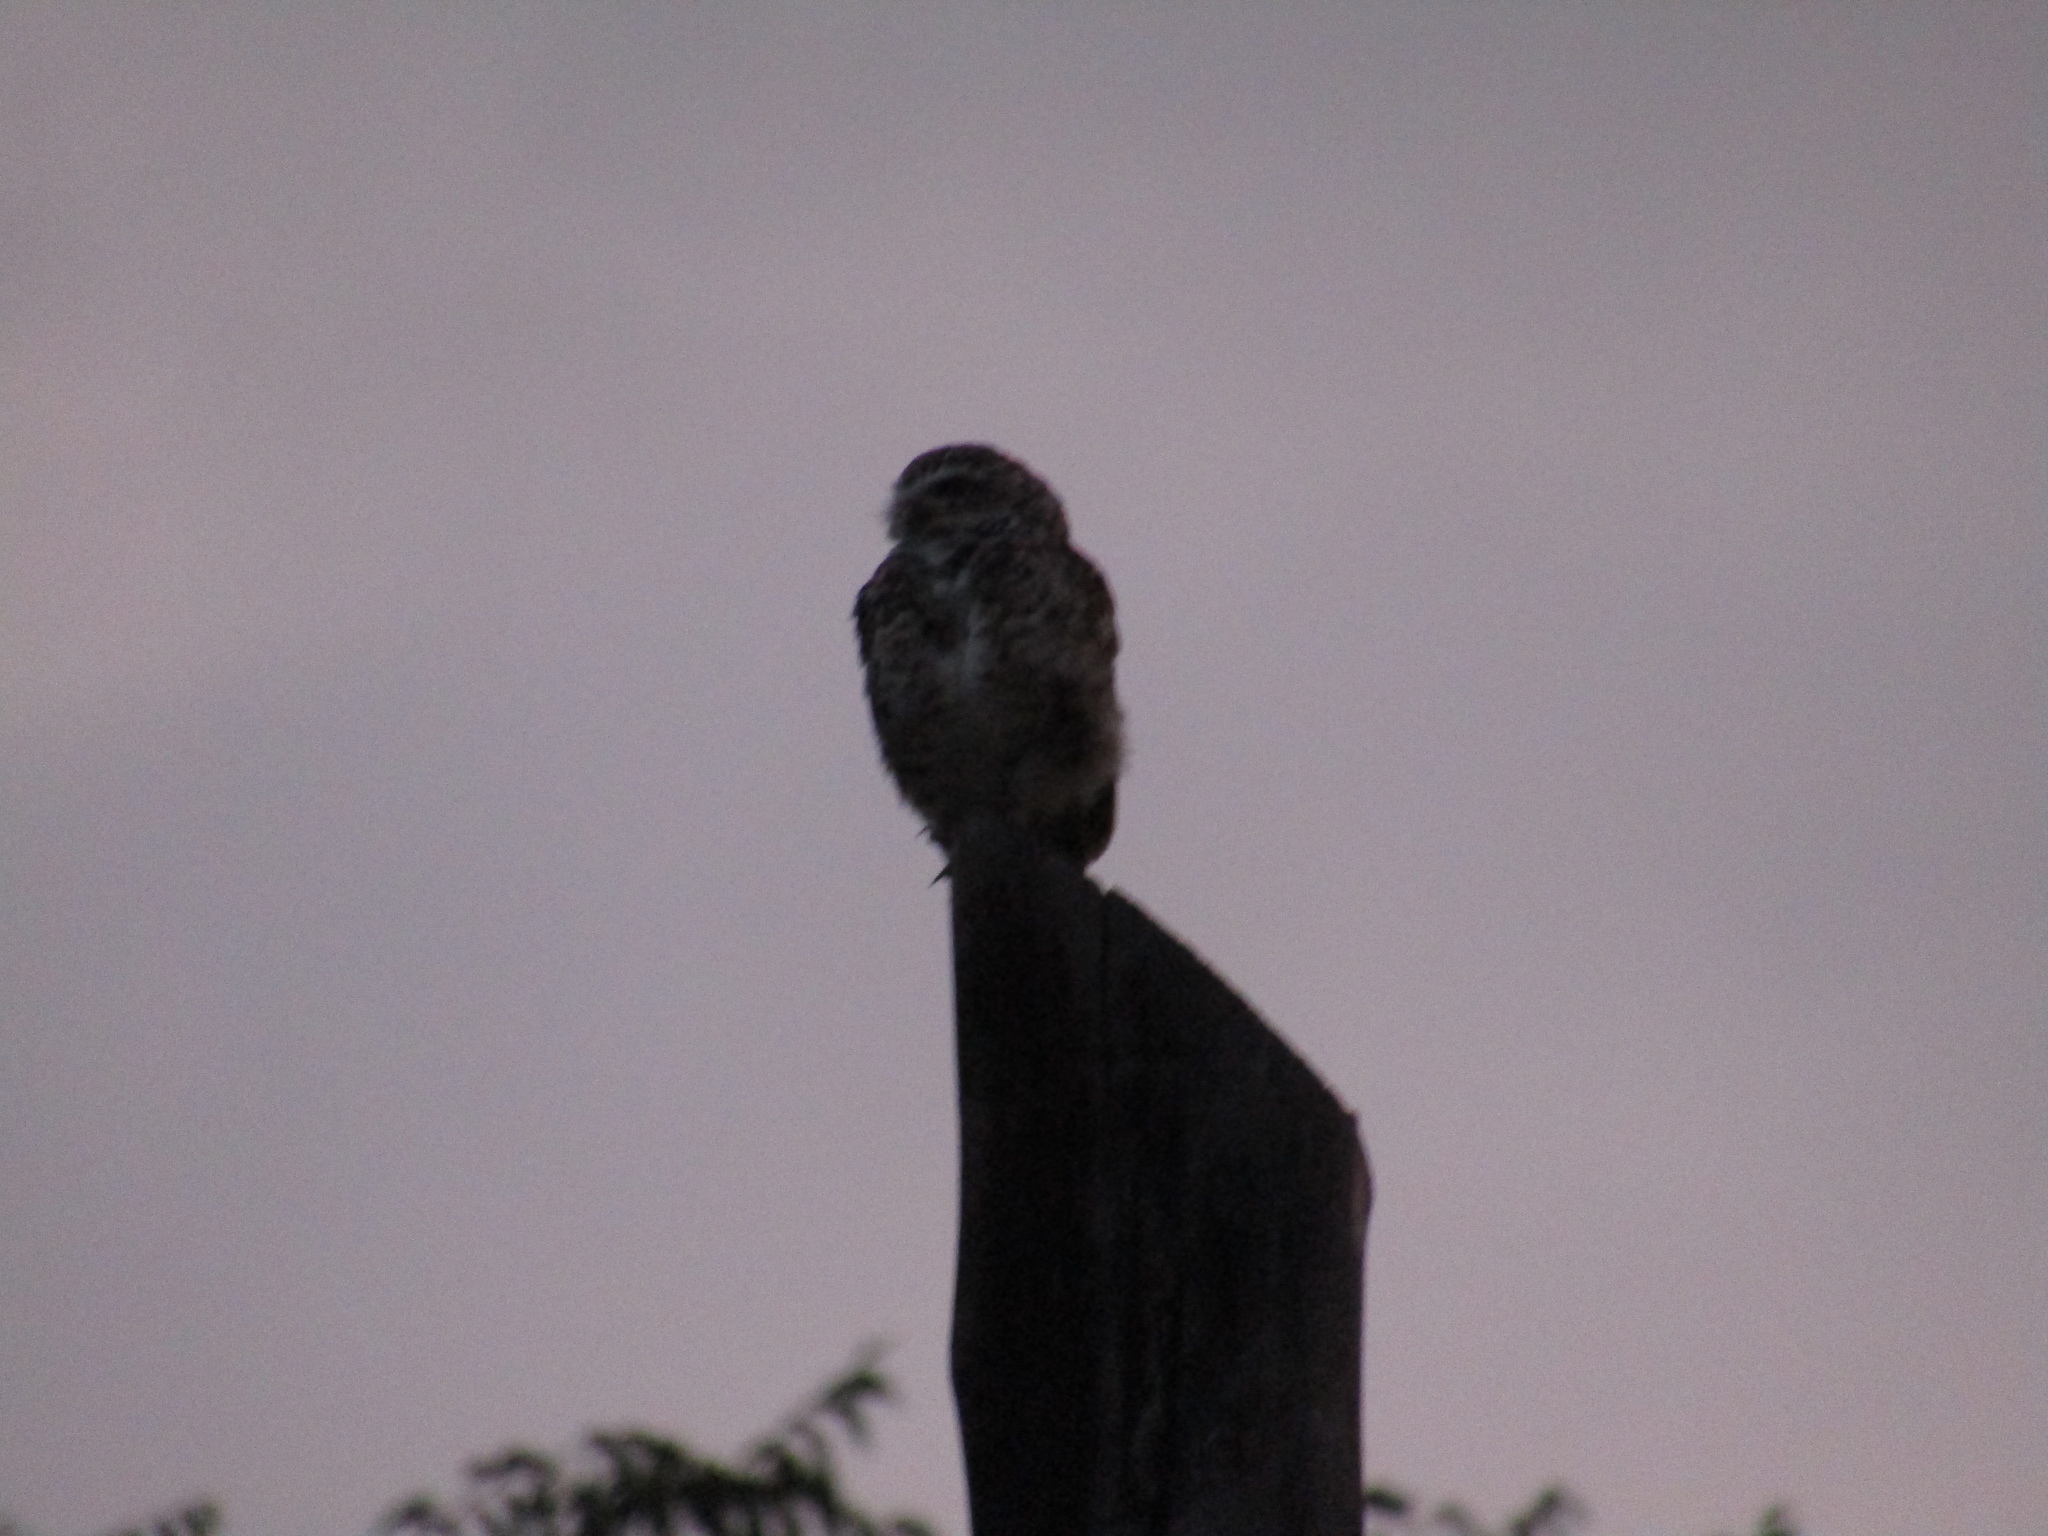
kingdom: Animalia
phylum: Chordata
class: Aves
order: Strigiformes
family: Strigidae
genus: Athene
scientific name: Athene cunicularia
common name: Burrowing owl
